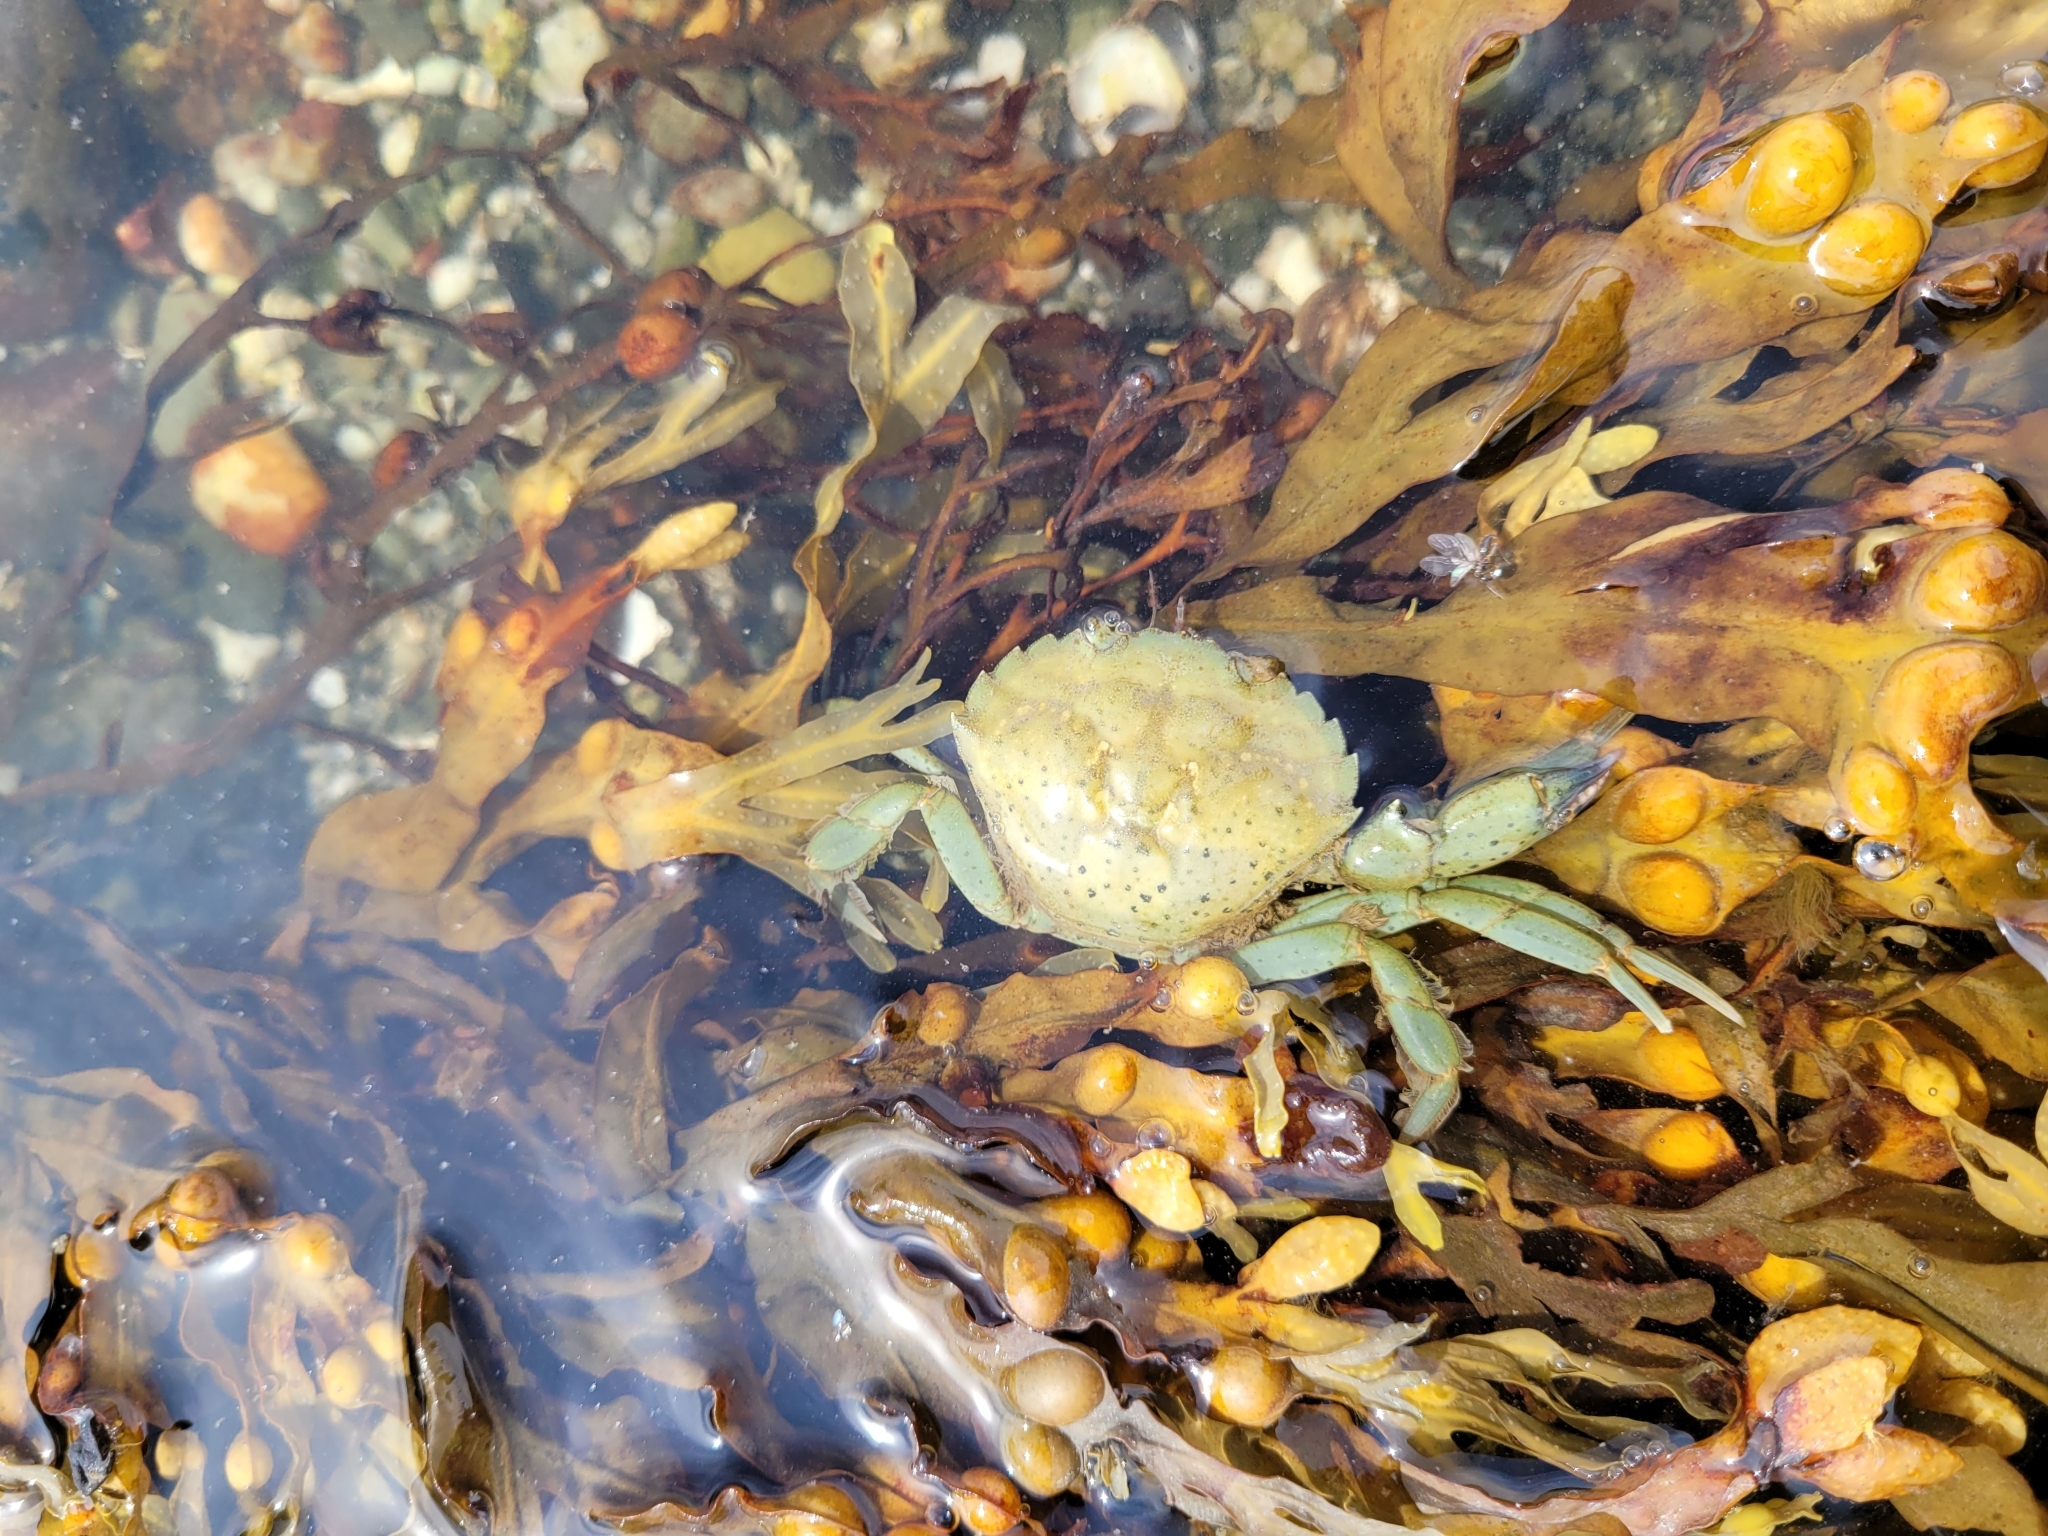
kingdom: Animalia
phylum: Arthropoda
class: Malacostraca
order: Decapoda
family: Carcinidae
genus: Carcinus
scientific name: Carcinus maenas
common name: European green crab
